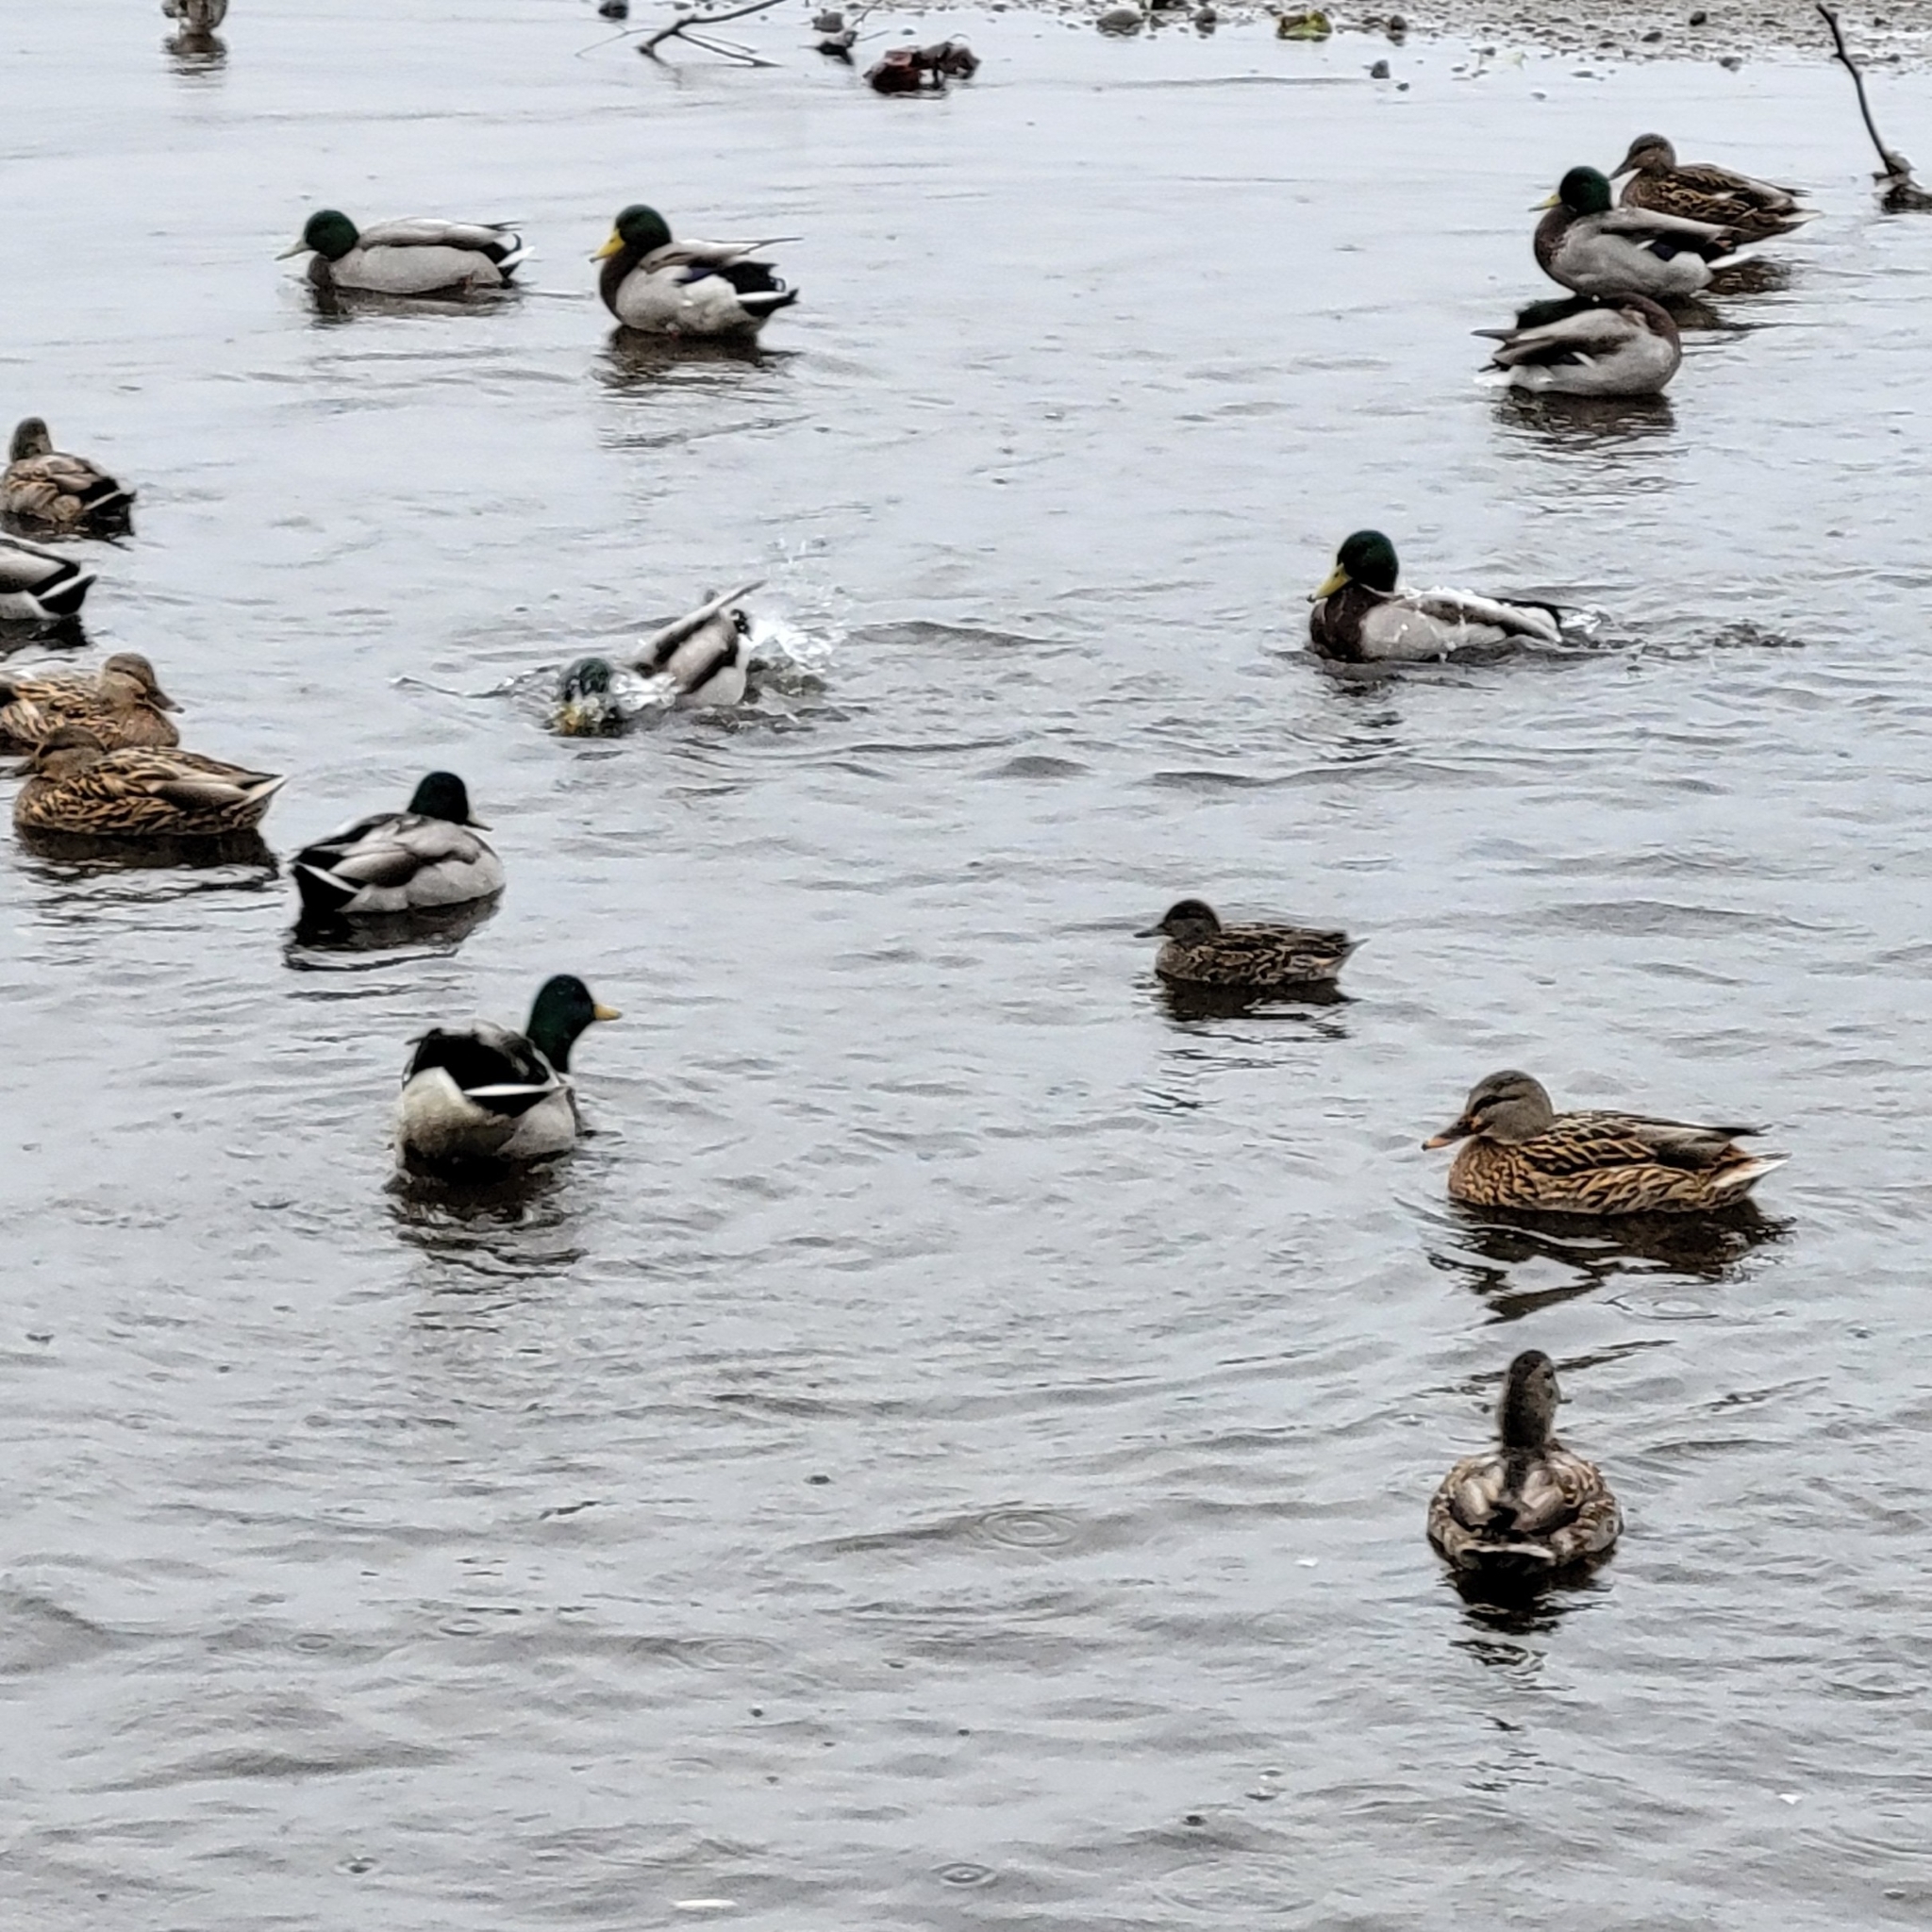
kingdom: Animalia
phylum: Chordata
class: Aves
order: Anseriformes
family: Anatidae
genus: Anas
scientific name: Anas platyrhynchos
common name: Mallard
